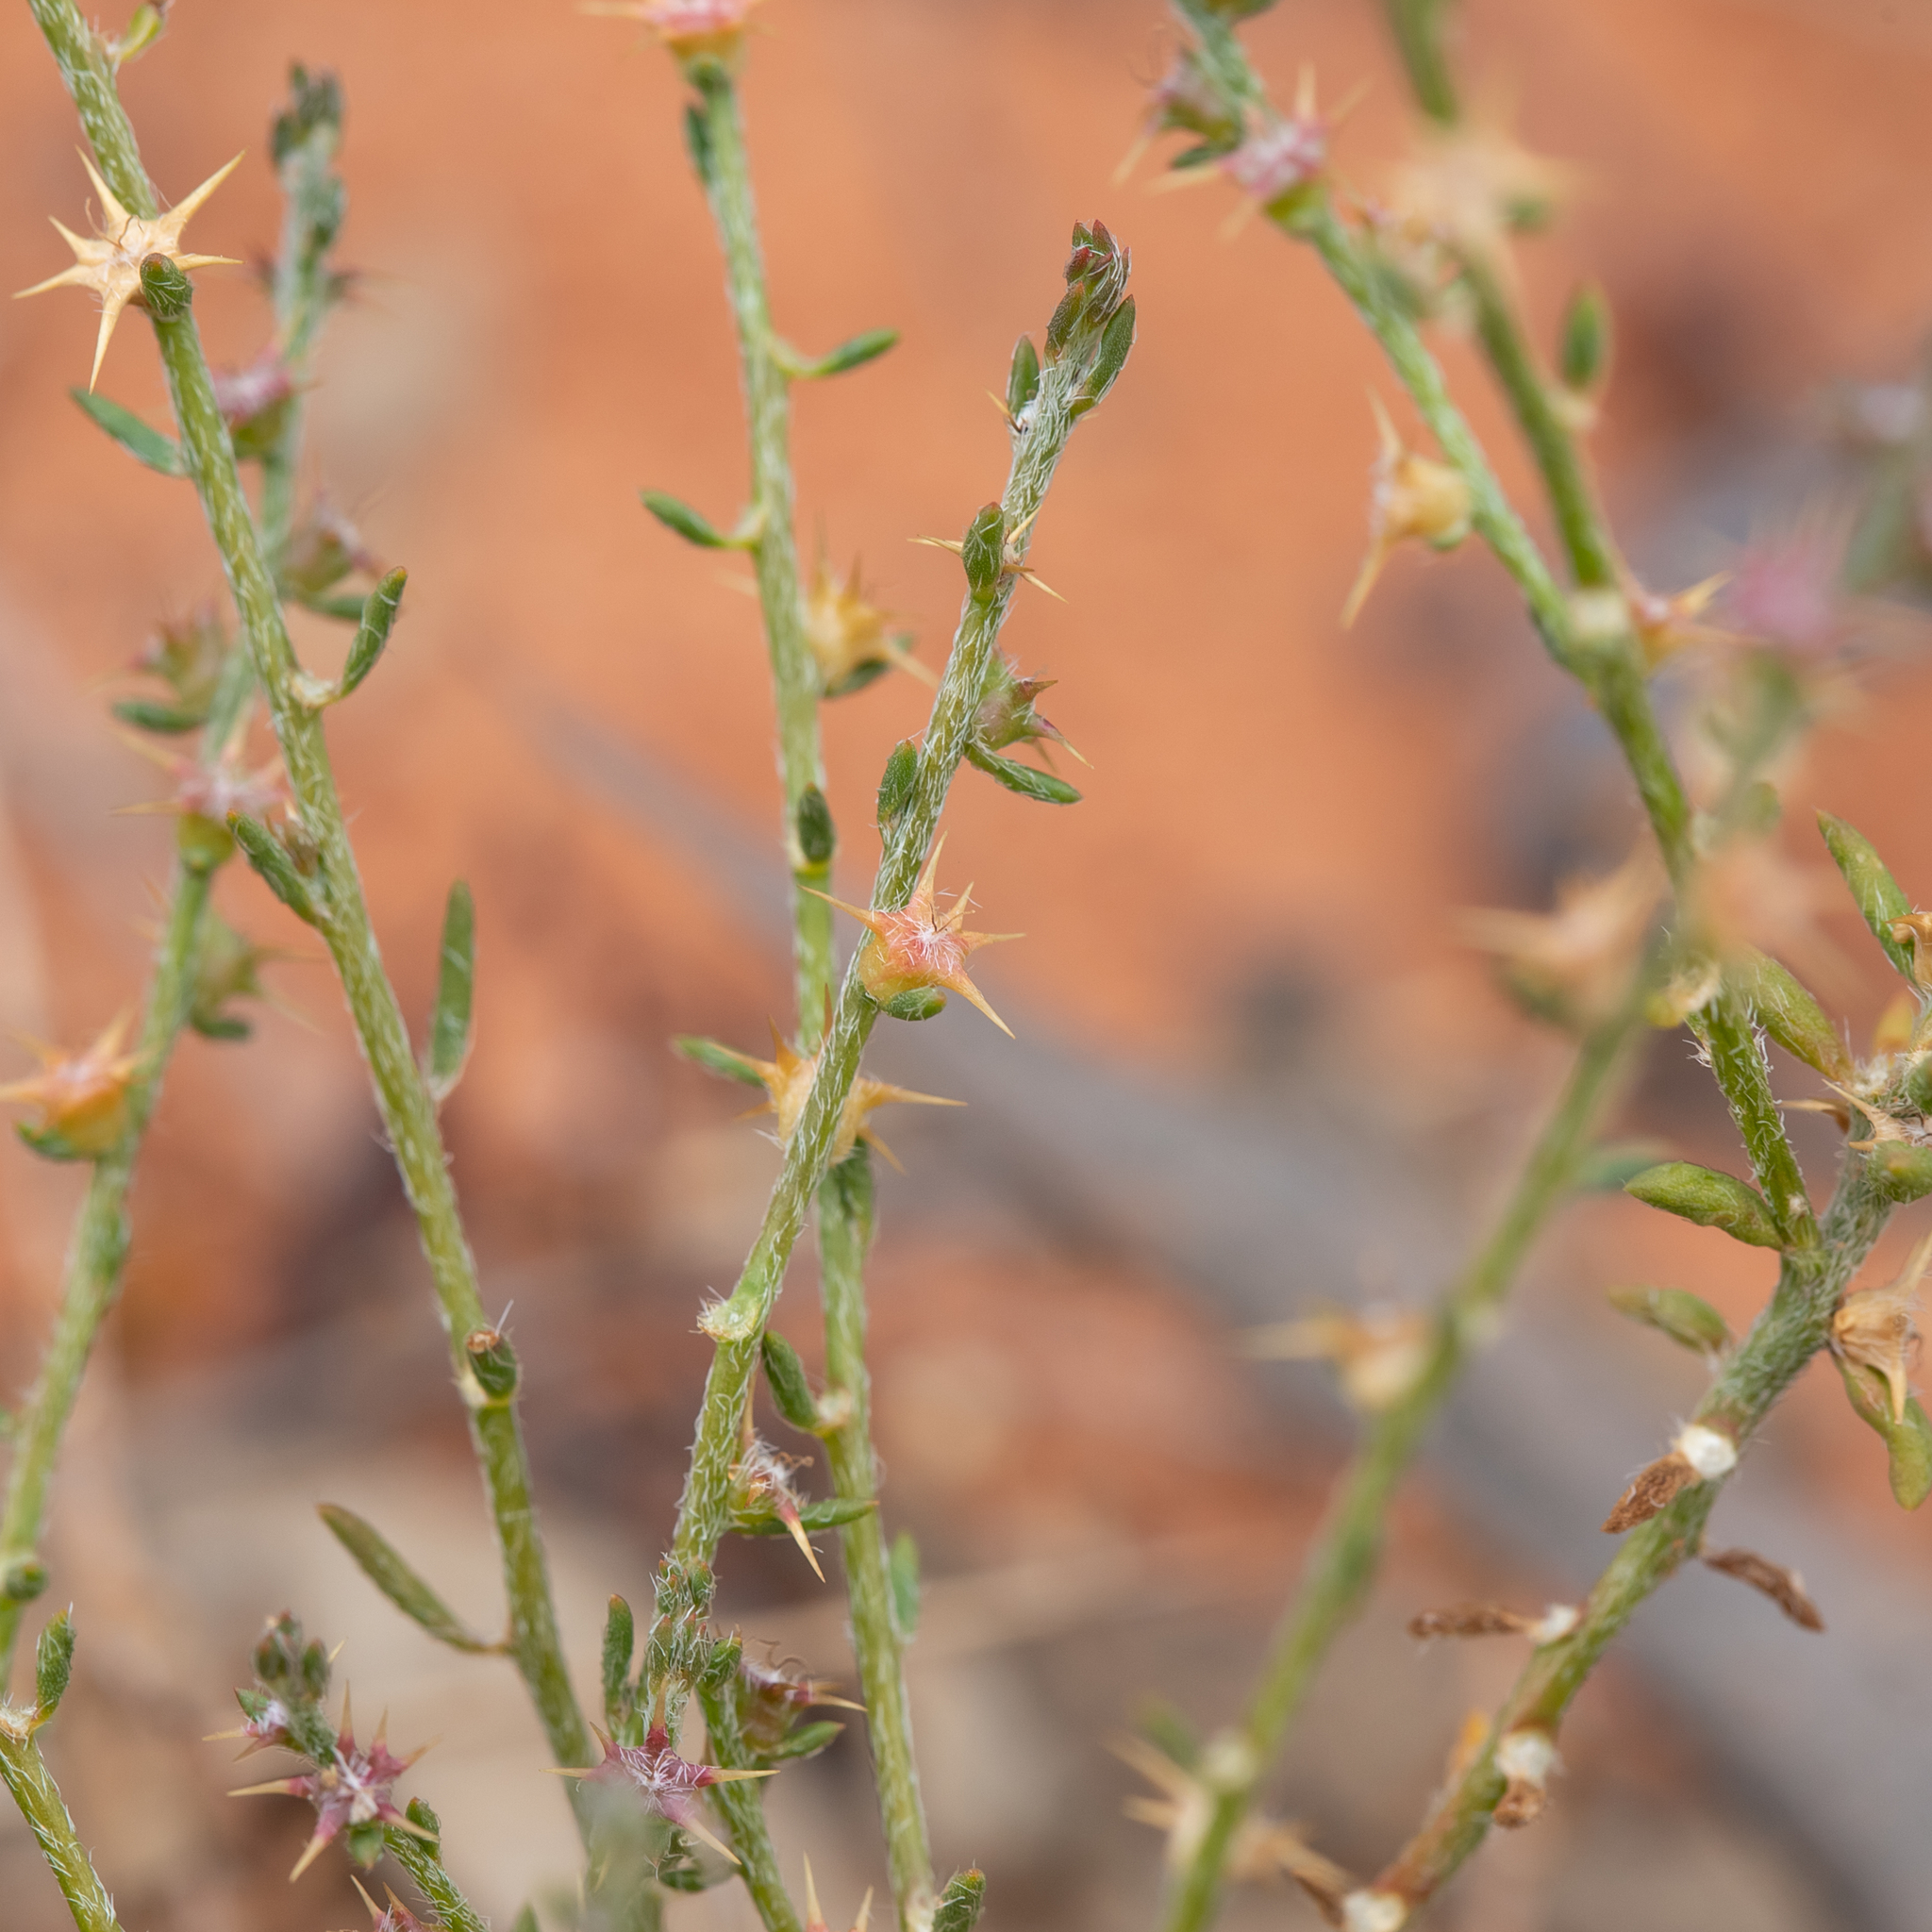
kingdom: Plantae
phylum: Tracheophyta
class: Magnoliopsida
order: Caryophyllales
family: Amaranthaceae
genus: Sclerolaena
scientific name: Sclerolaena parviflora
